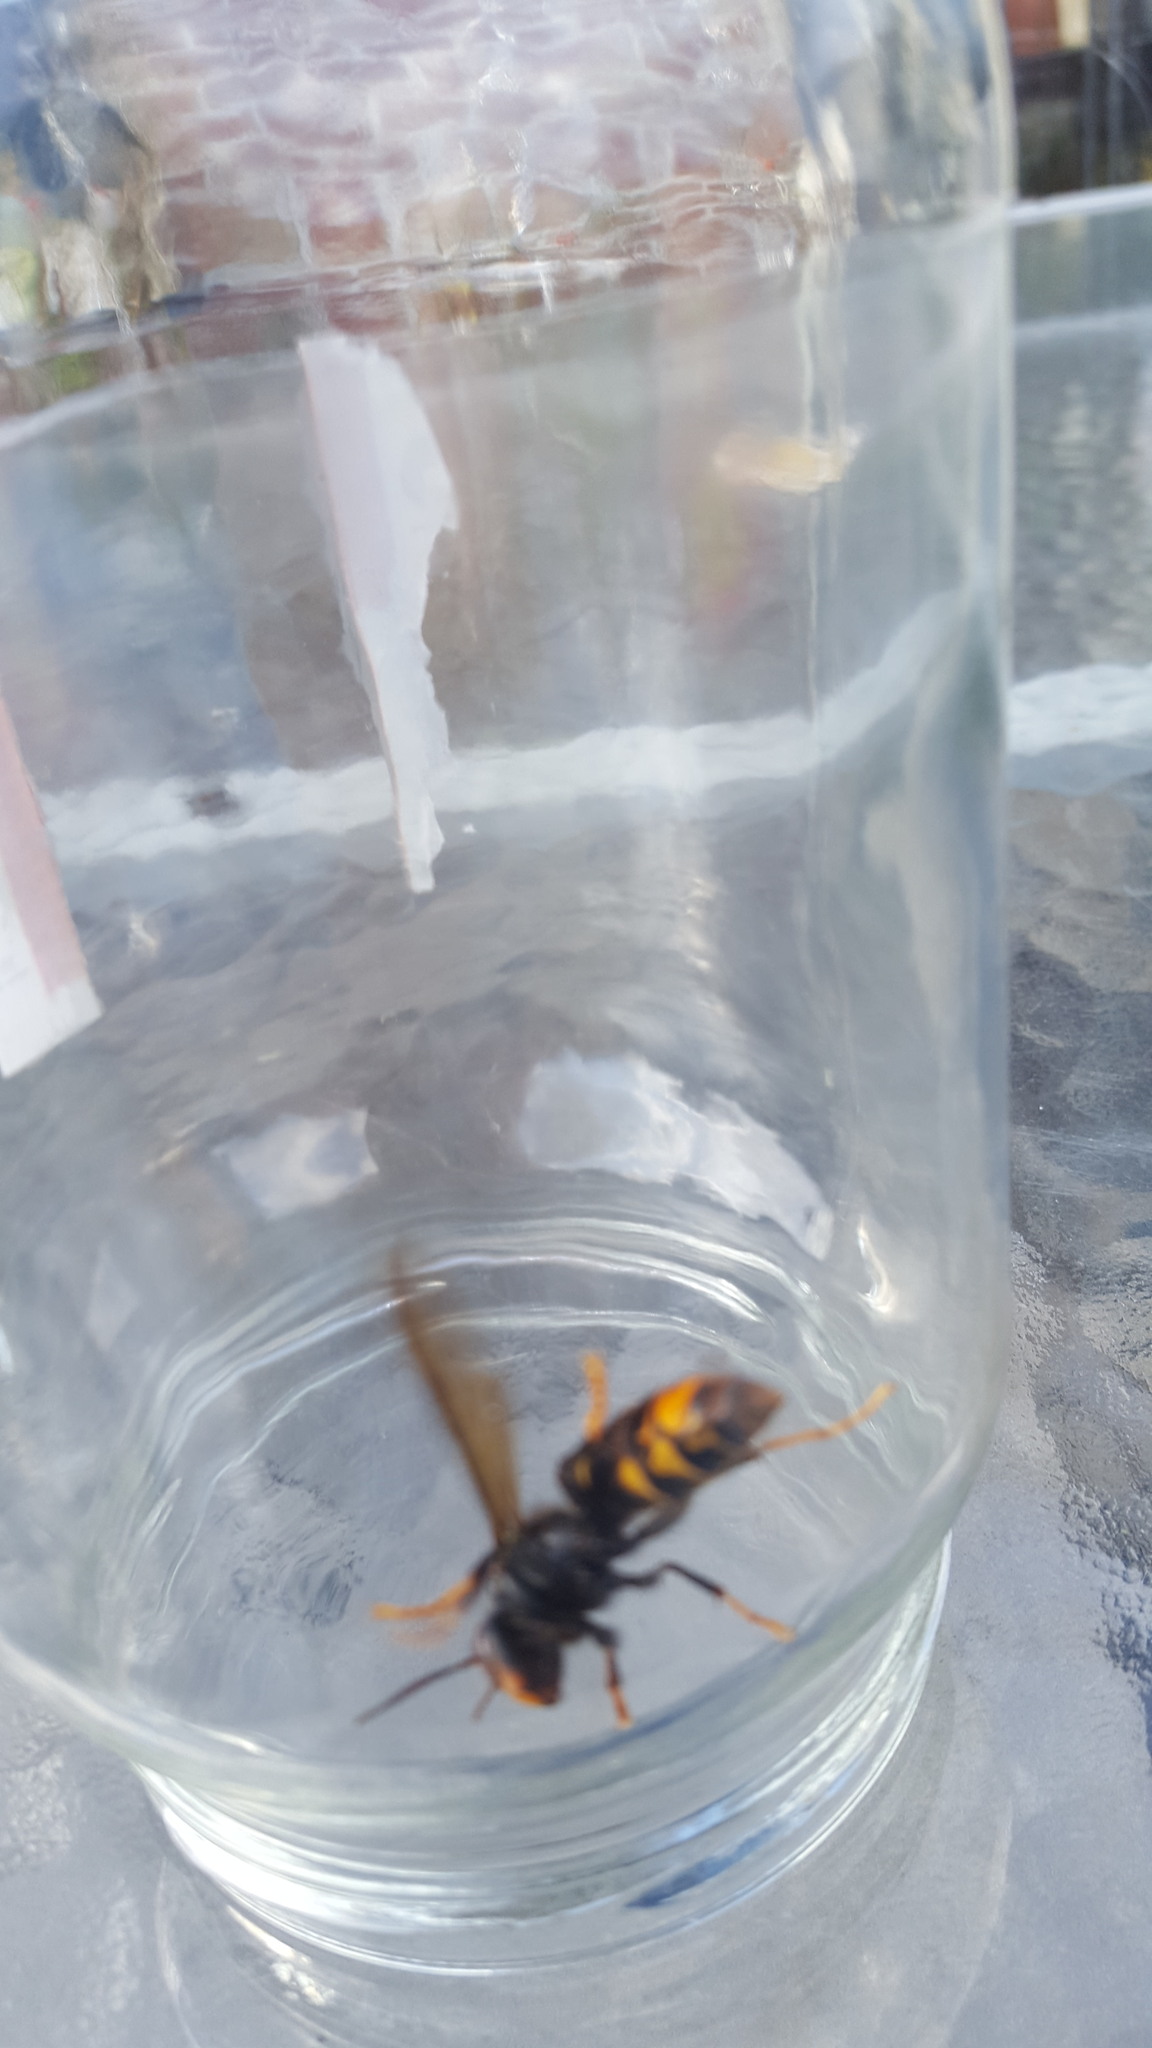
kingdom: Animalia
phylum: Arthropoda
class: Insecta
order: Hymenoptera
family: Vespidae
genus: Vespa
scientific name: Vespa velutina
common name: Asian hornet
